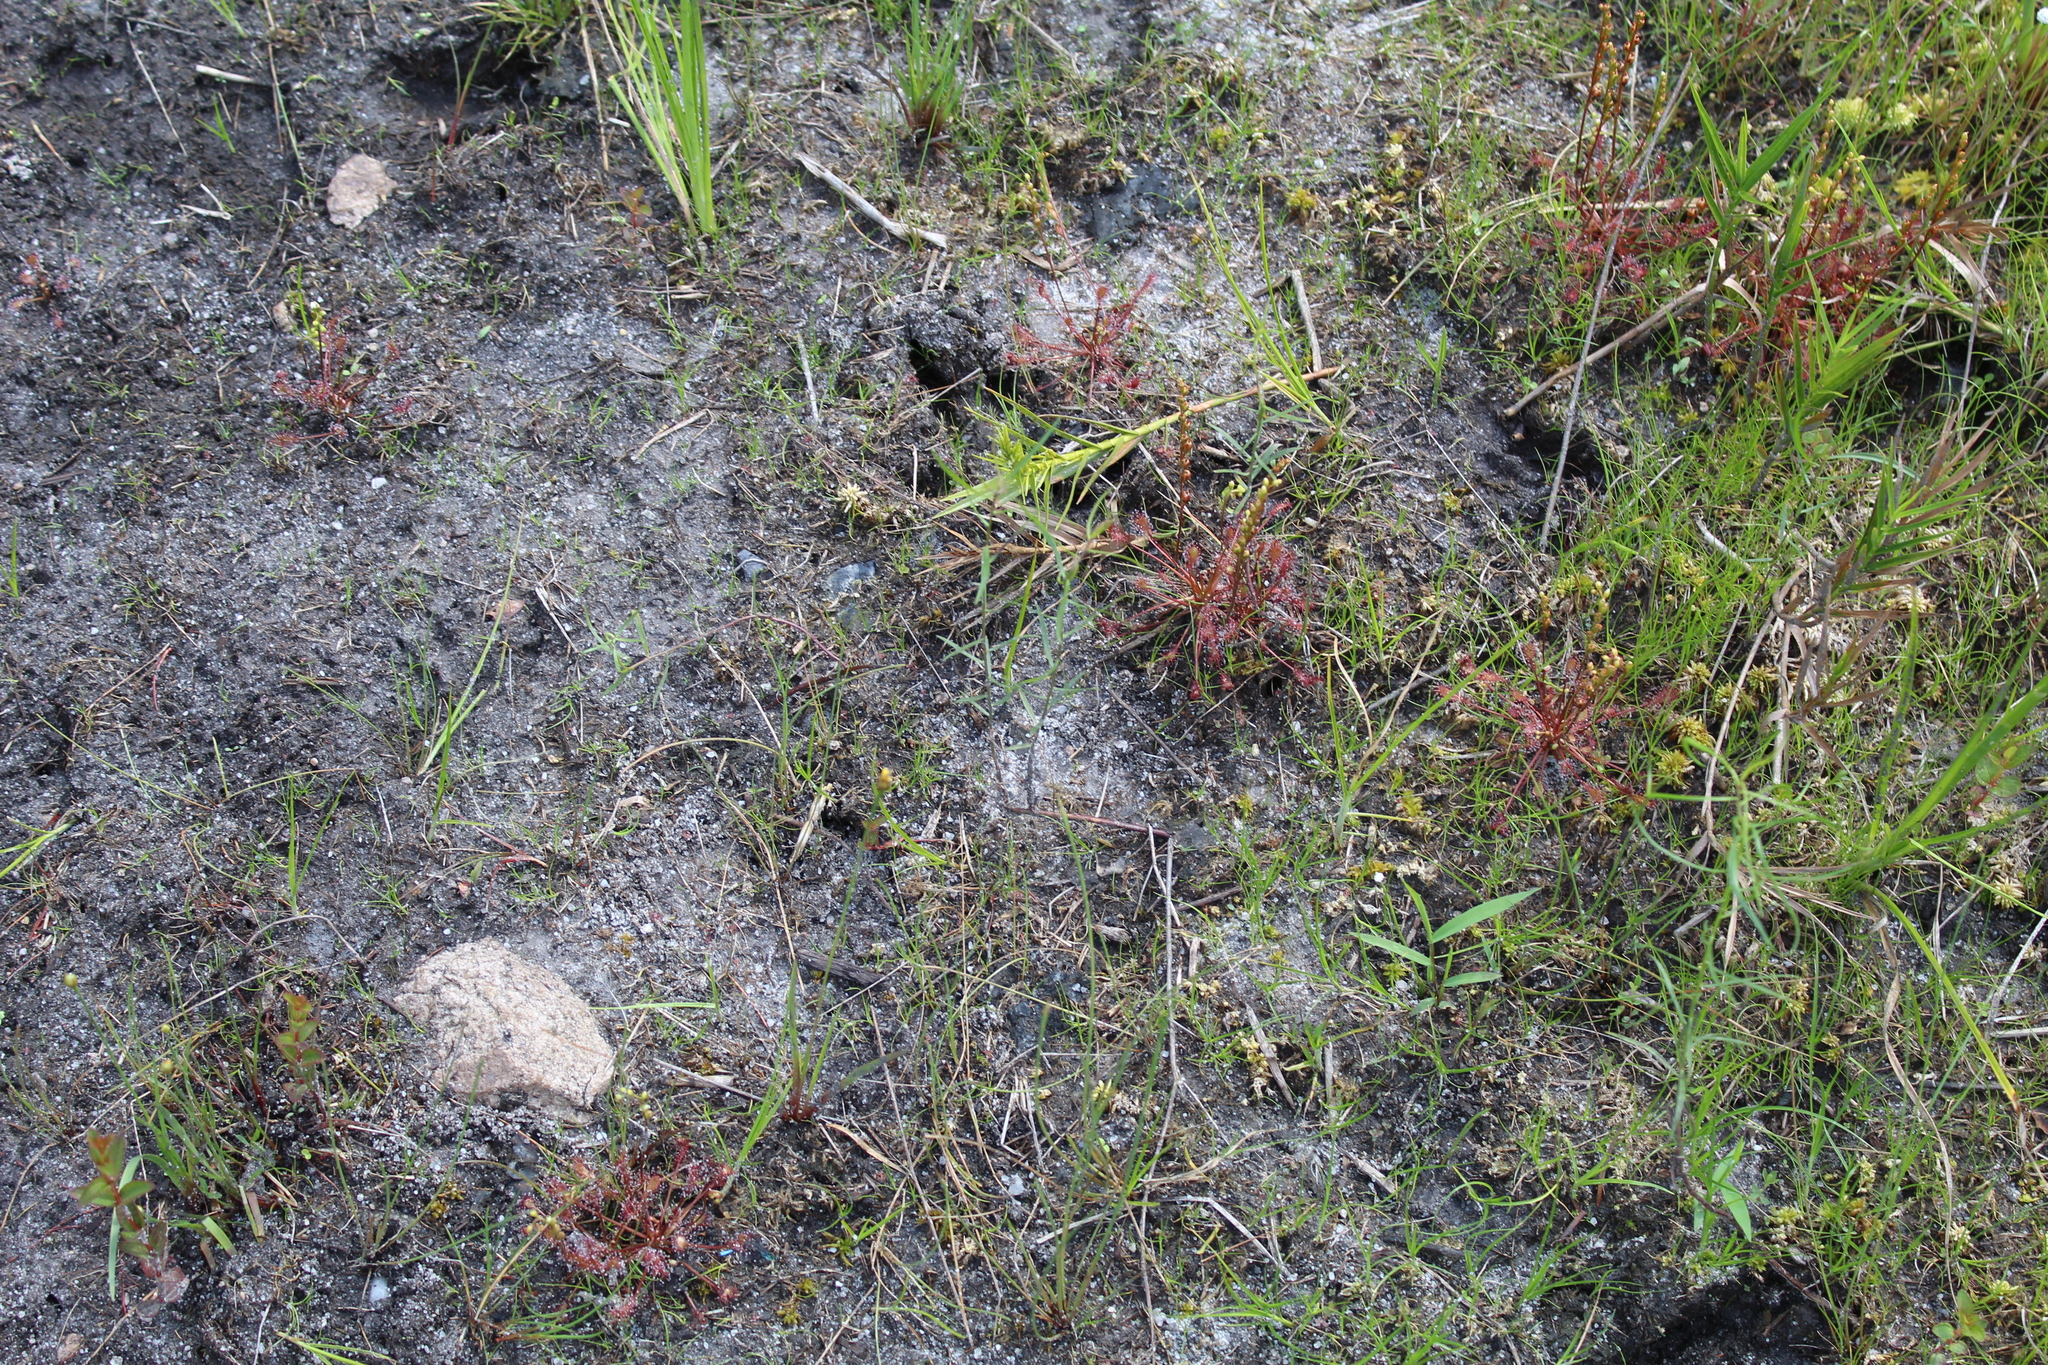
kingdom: Plantae
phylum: Tracheophyta
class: Magnoliopsida
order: Caryophyllales
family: Droseraceae
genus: Drosera
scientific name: Drosera intermedia
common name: Oblong-leaved sundew
